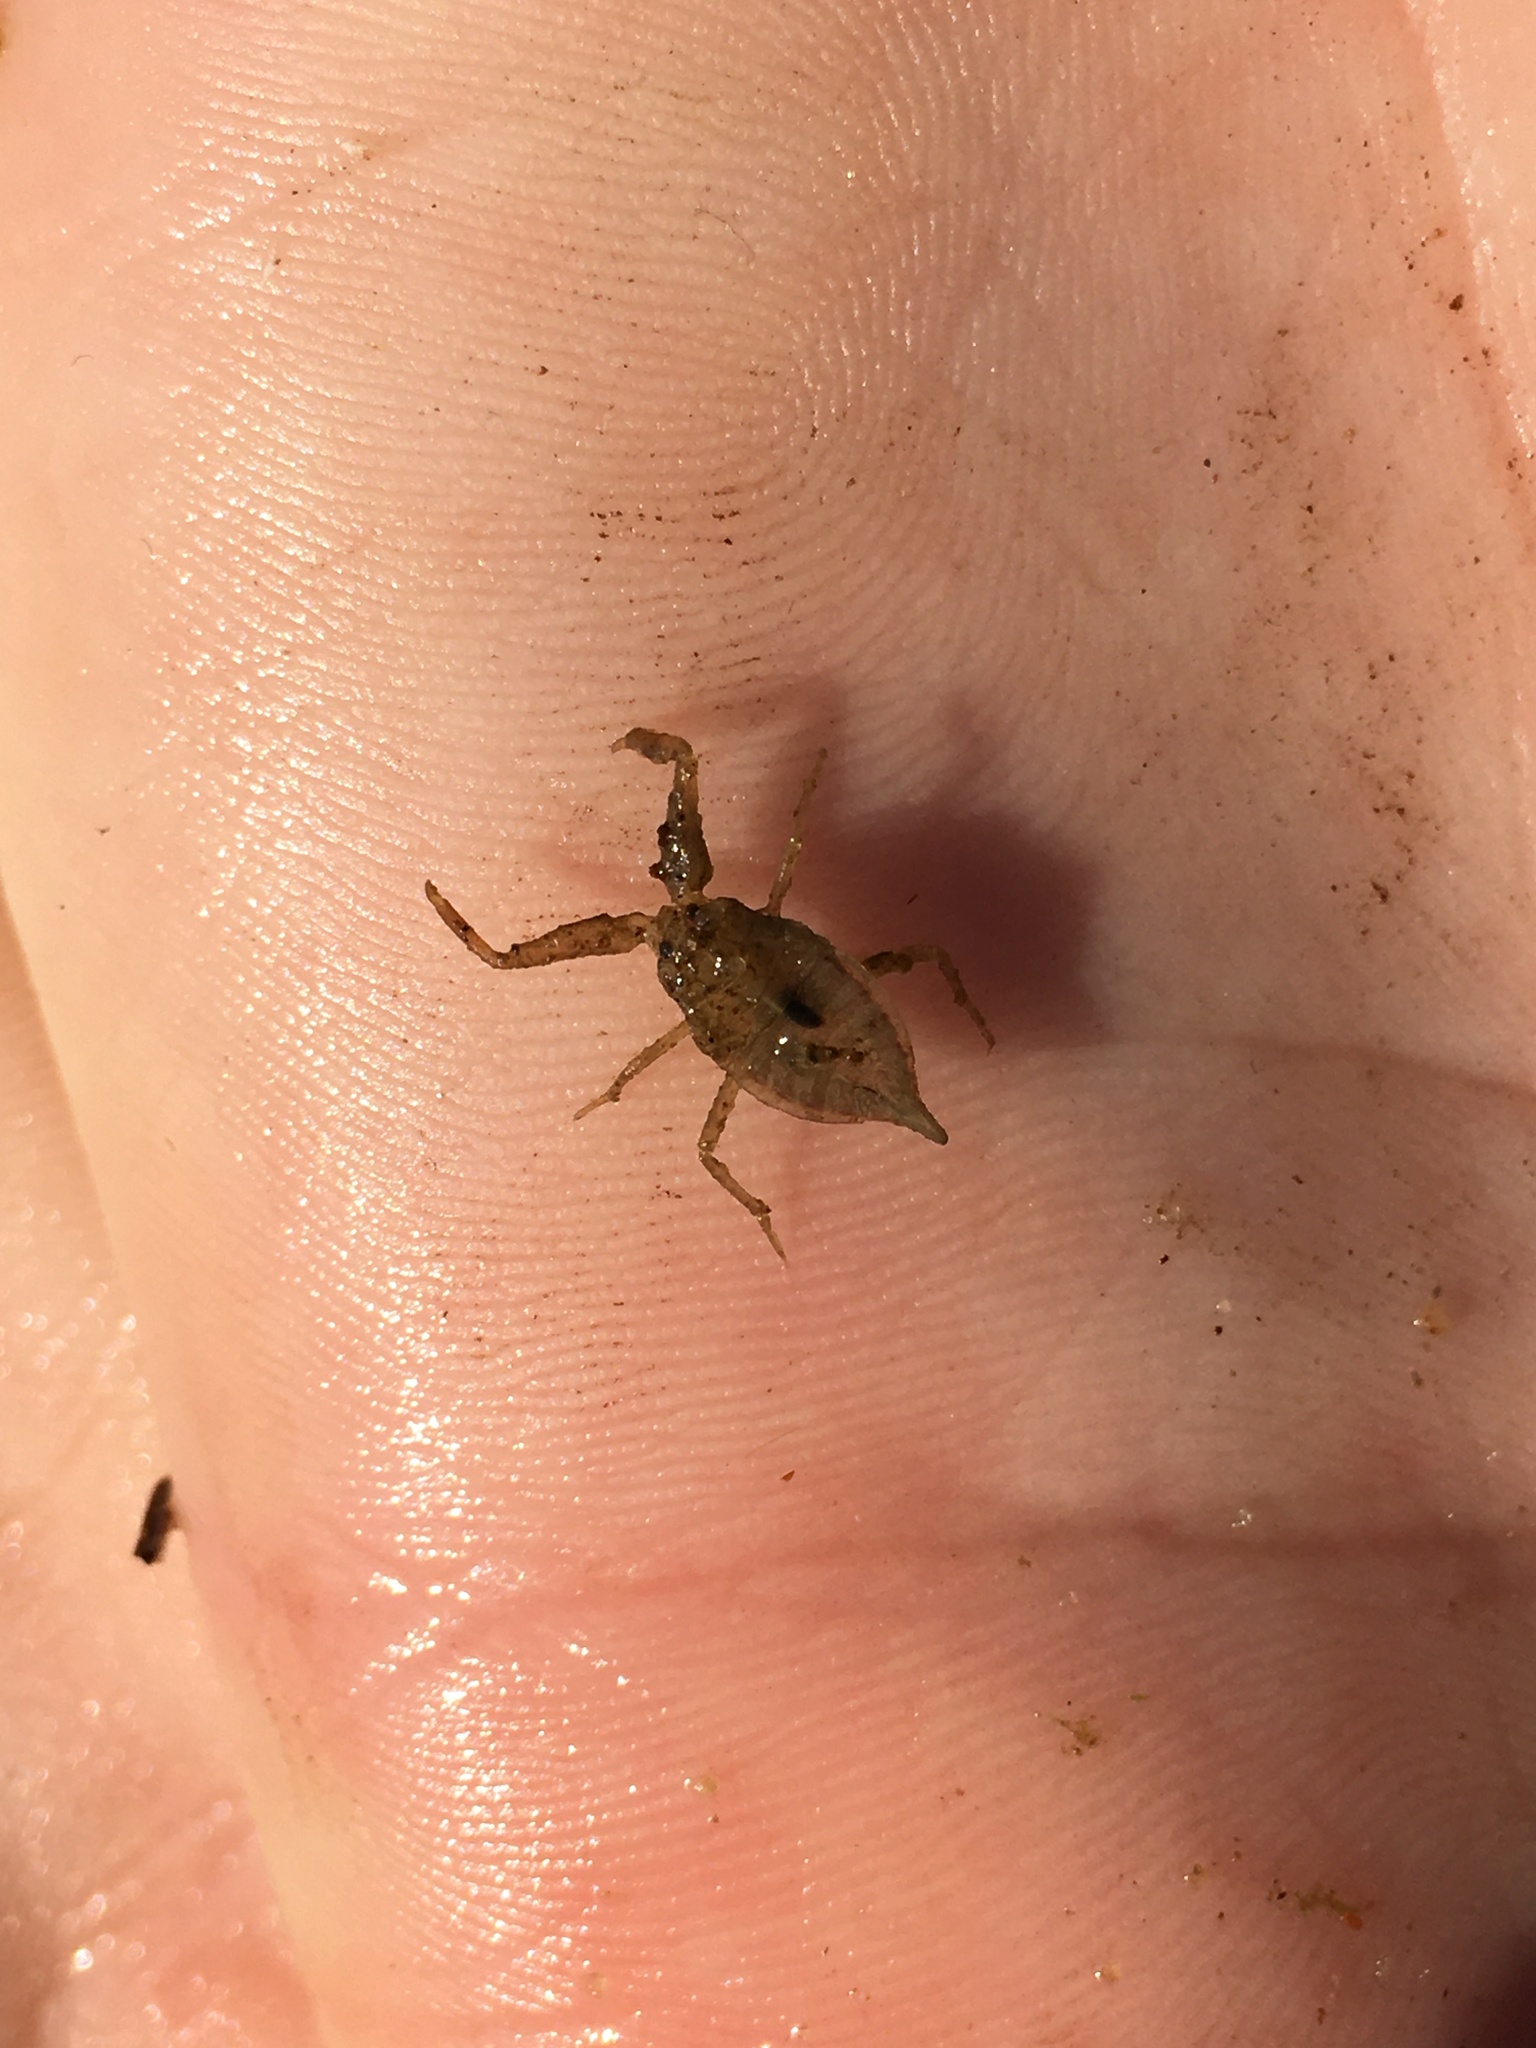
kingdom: Animalia
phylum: Arthropoda
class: Insecta
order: Hemiptera
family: Nepidae
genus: Nepa
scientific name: Nepa cinerea
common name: Water scorpion
